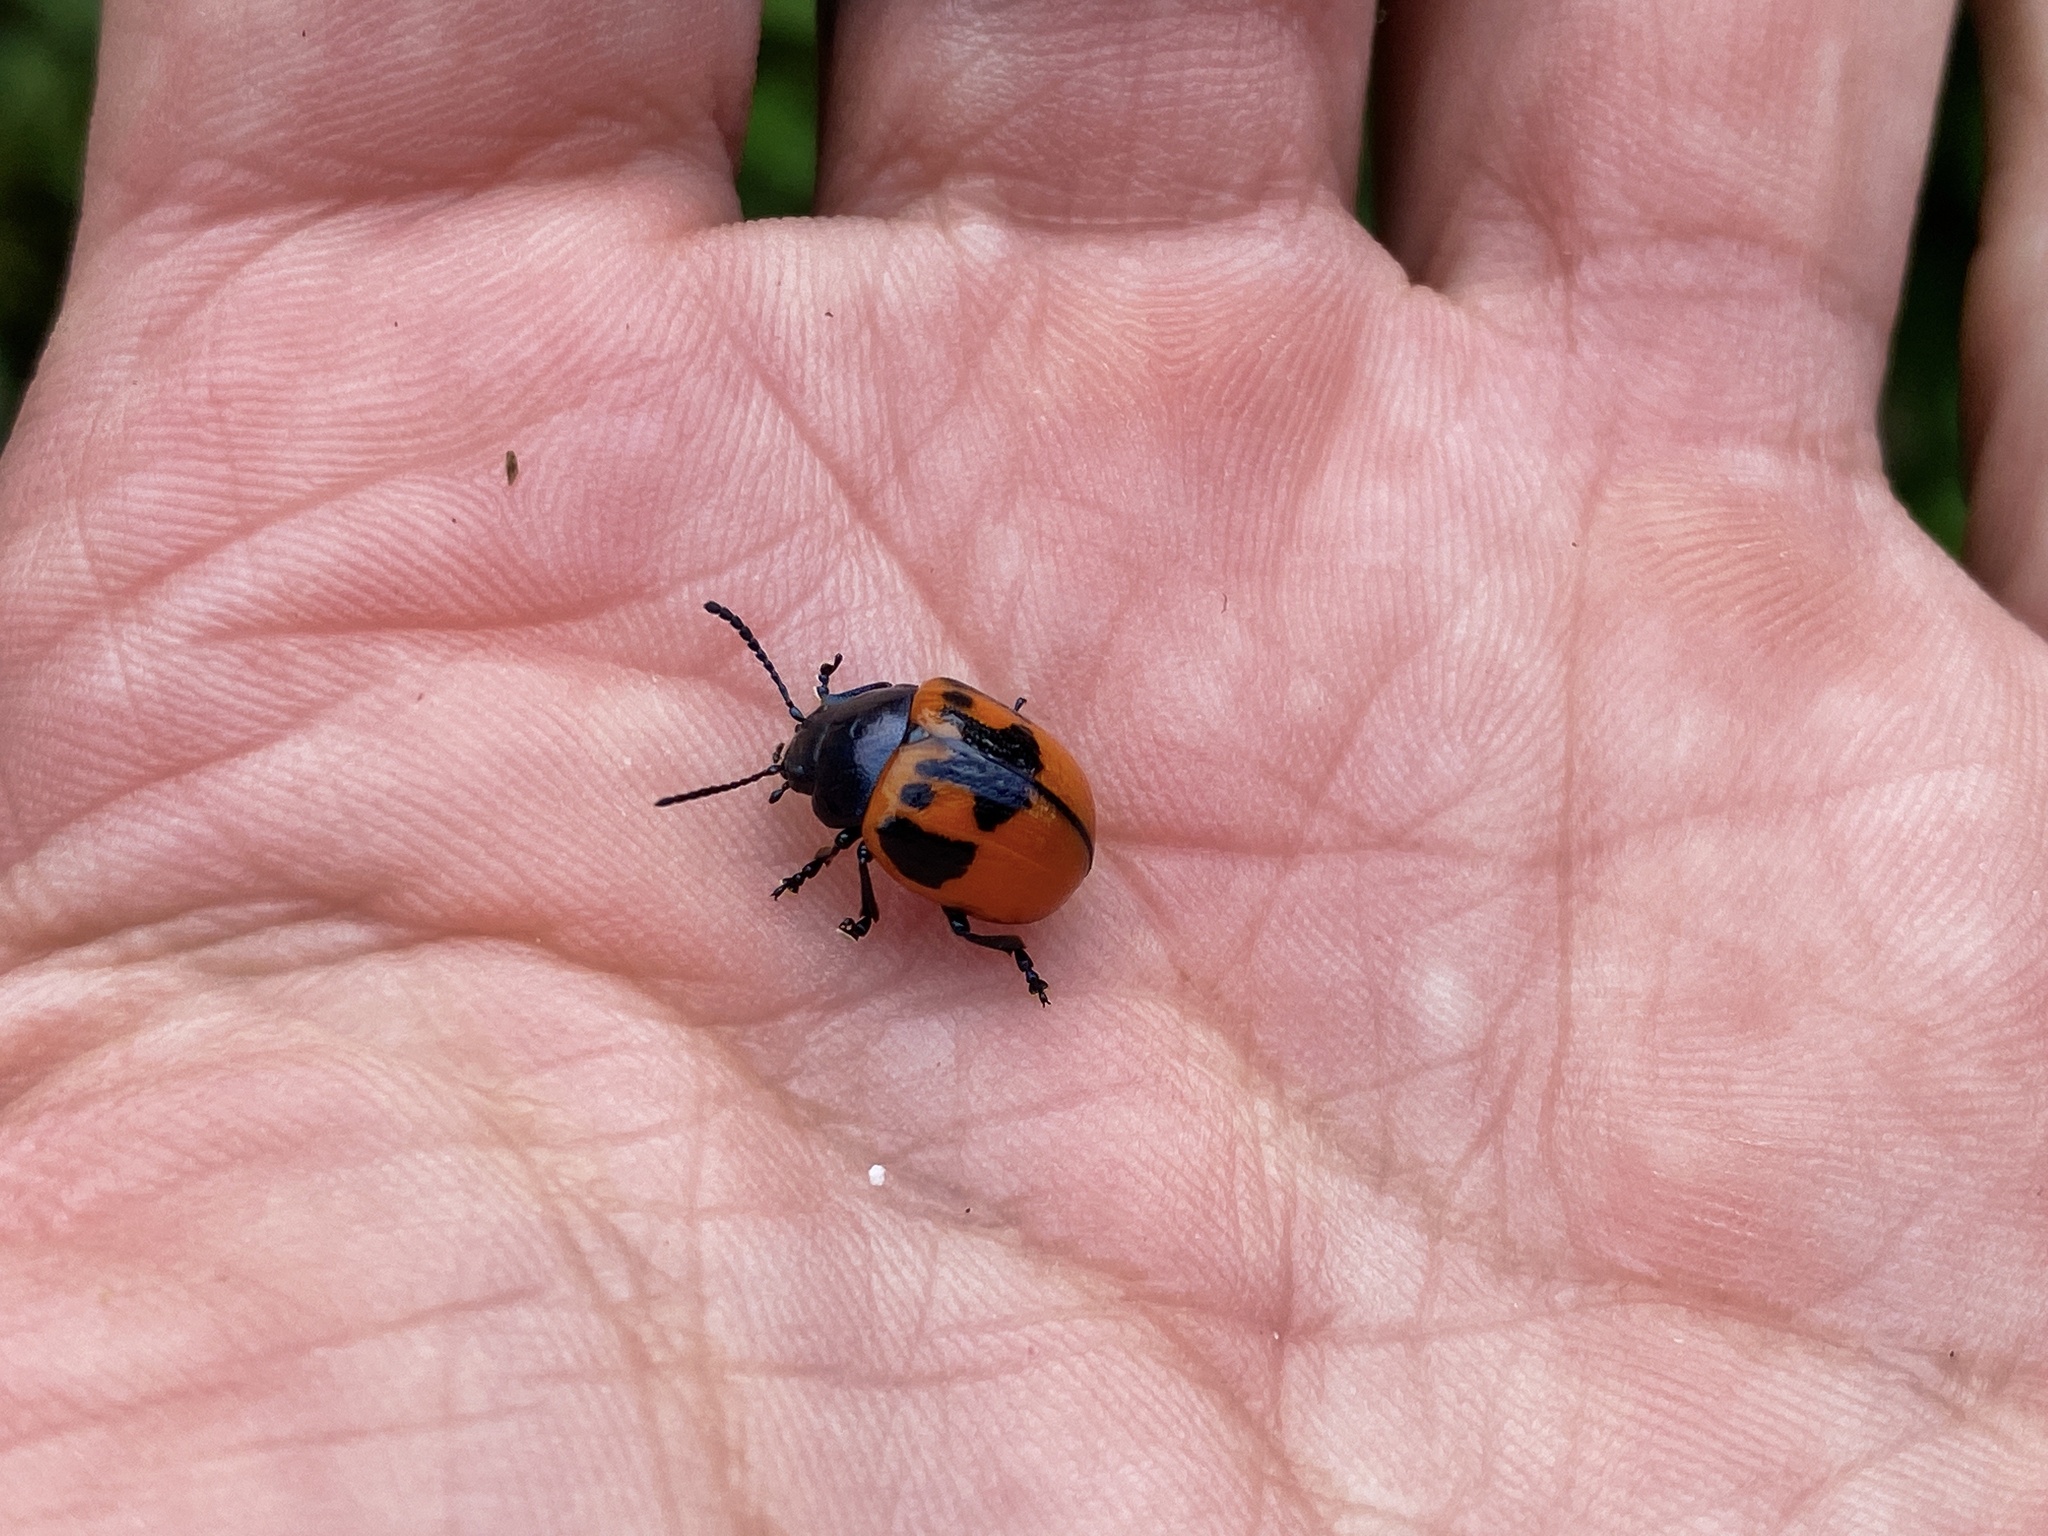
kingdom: Animalia
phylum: Arthropoda
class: Insecta
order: Coleoptera
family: Chrysomelidae
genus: Labidomera
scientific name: Labidomera clivicollis
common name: Swamp milkweed leaf beetle
